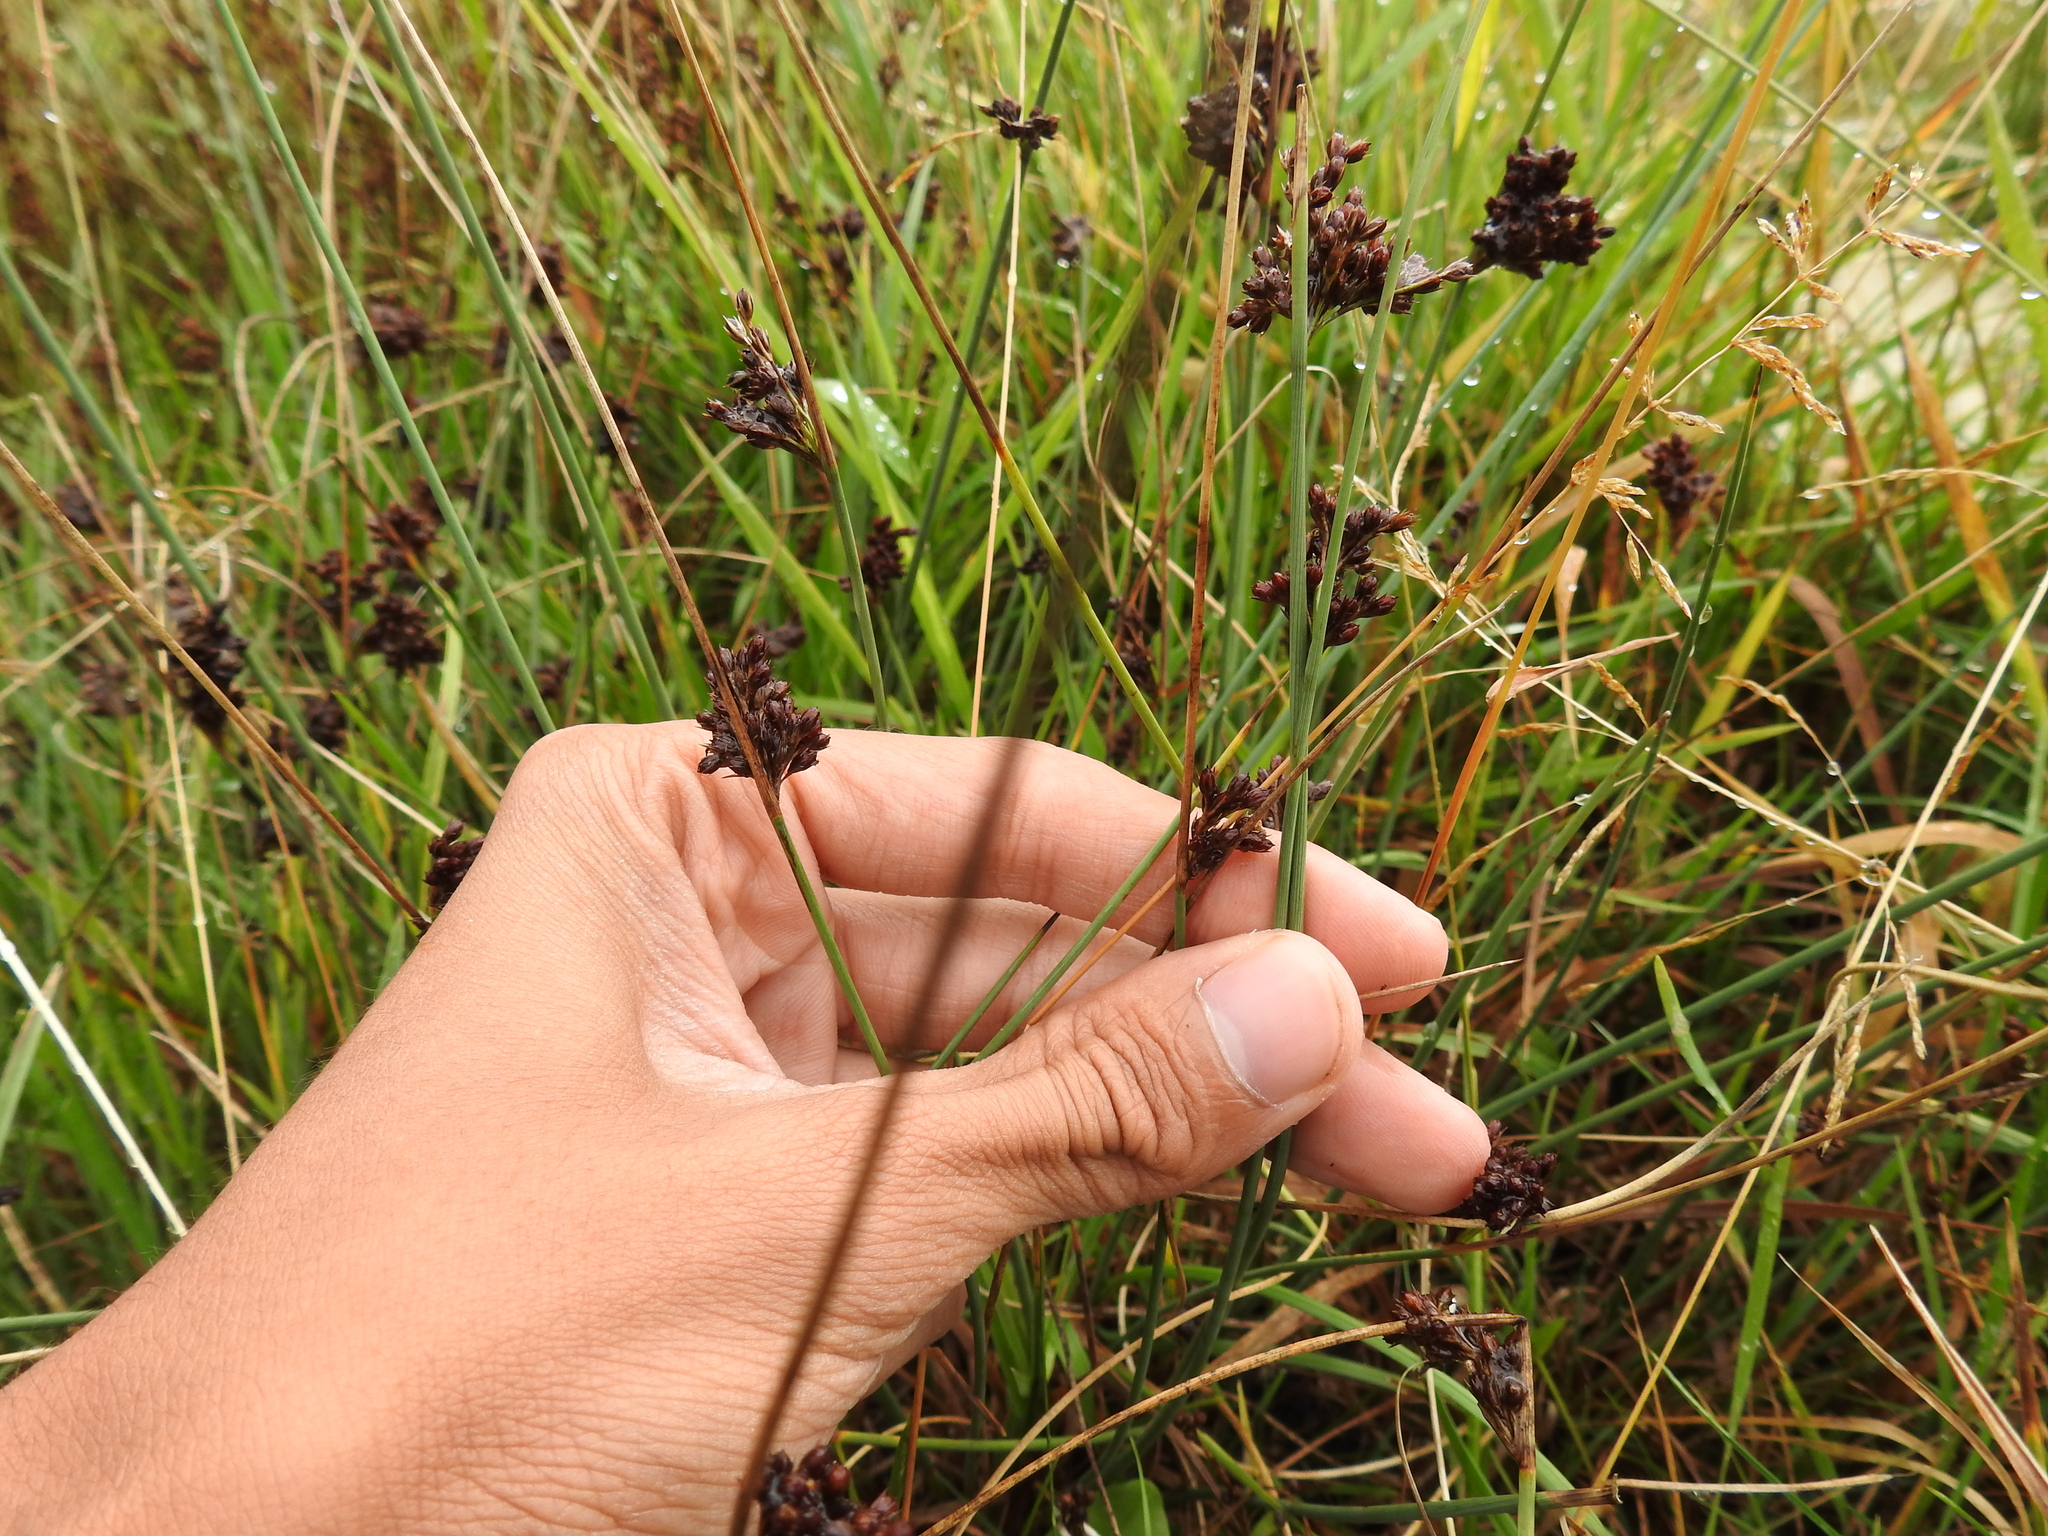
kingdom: Plantae
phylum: Tracheophyta
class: Liliopsida
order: Poales
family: Juncaceae
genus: Juncus
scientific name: Juncus inflexus
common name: Hard rush
